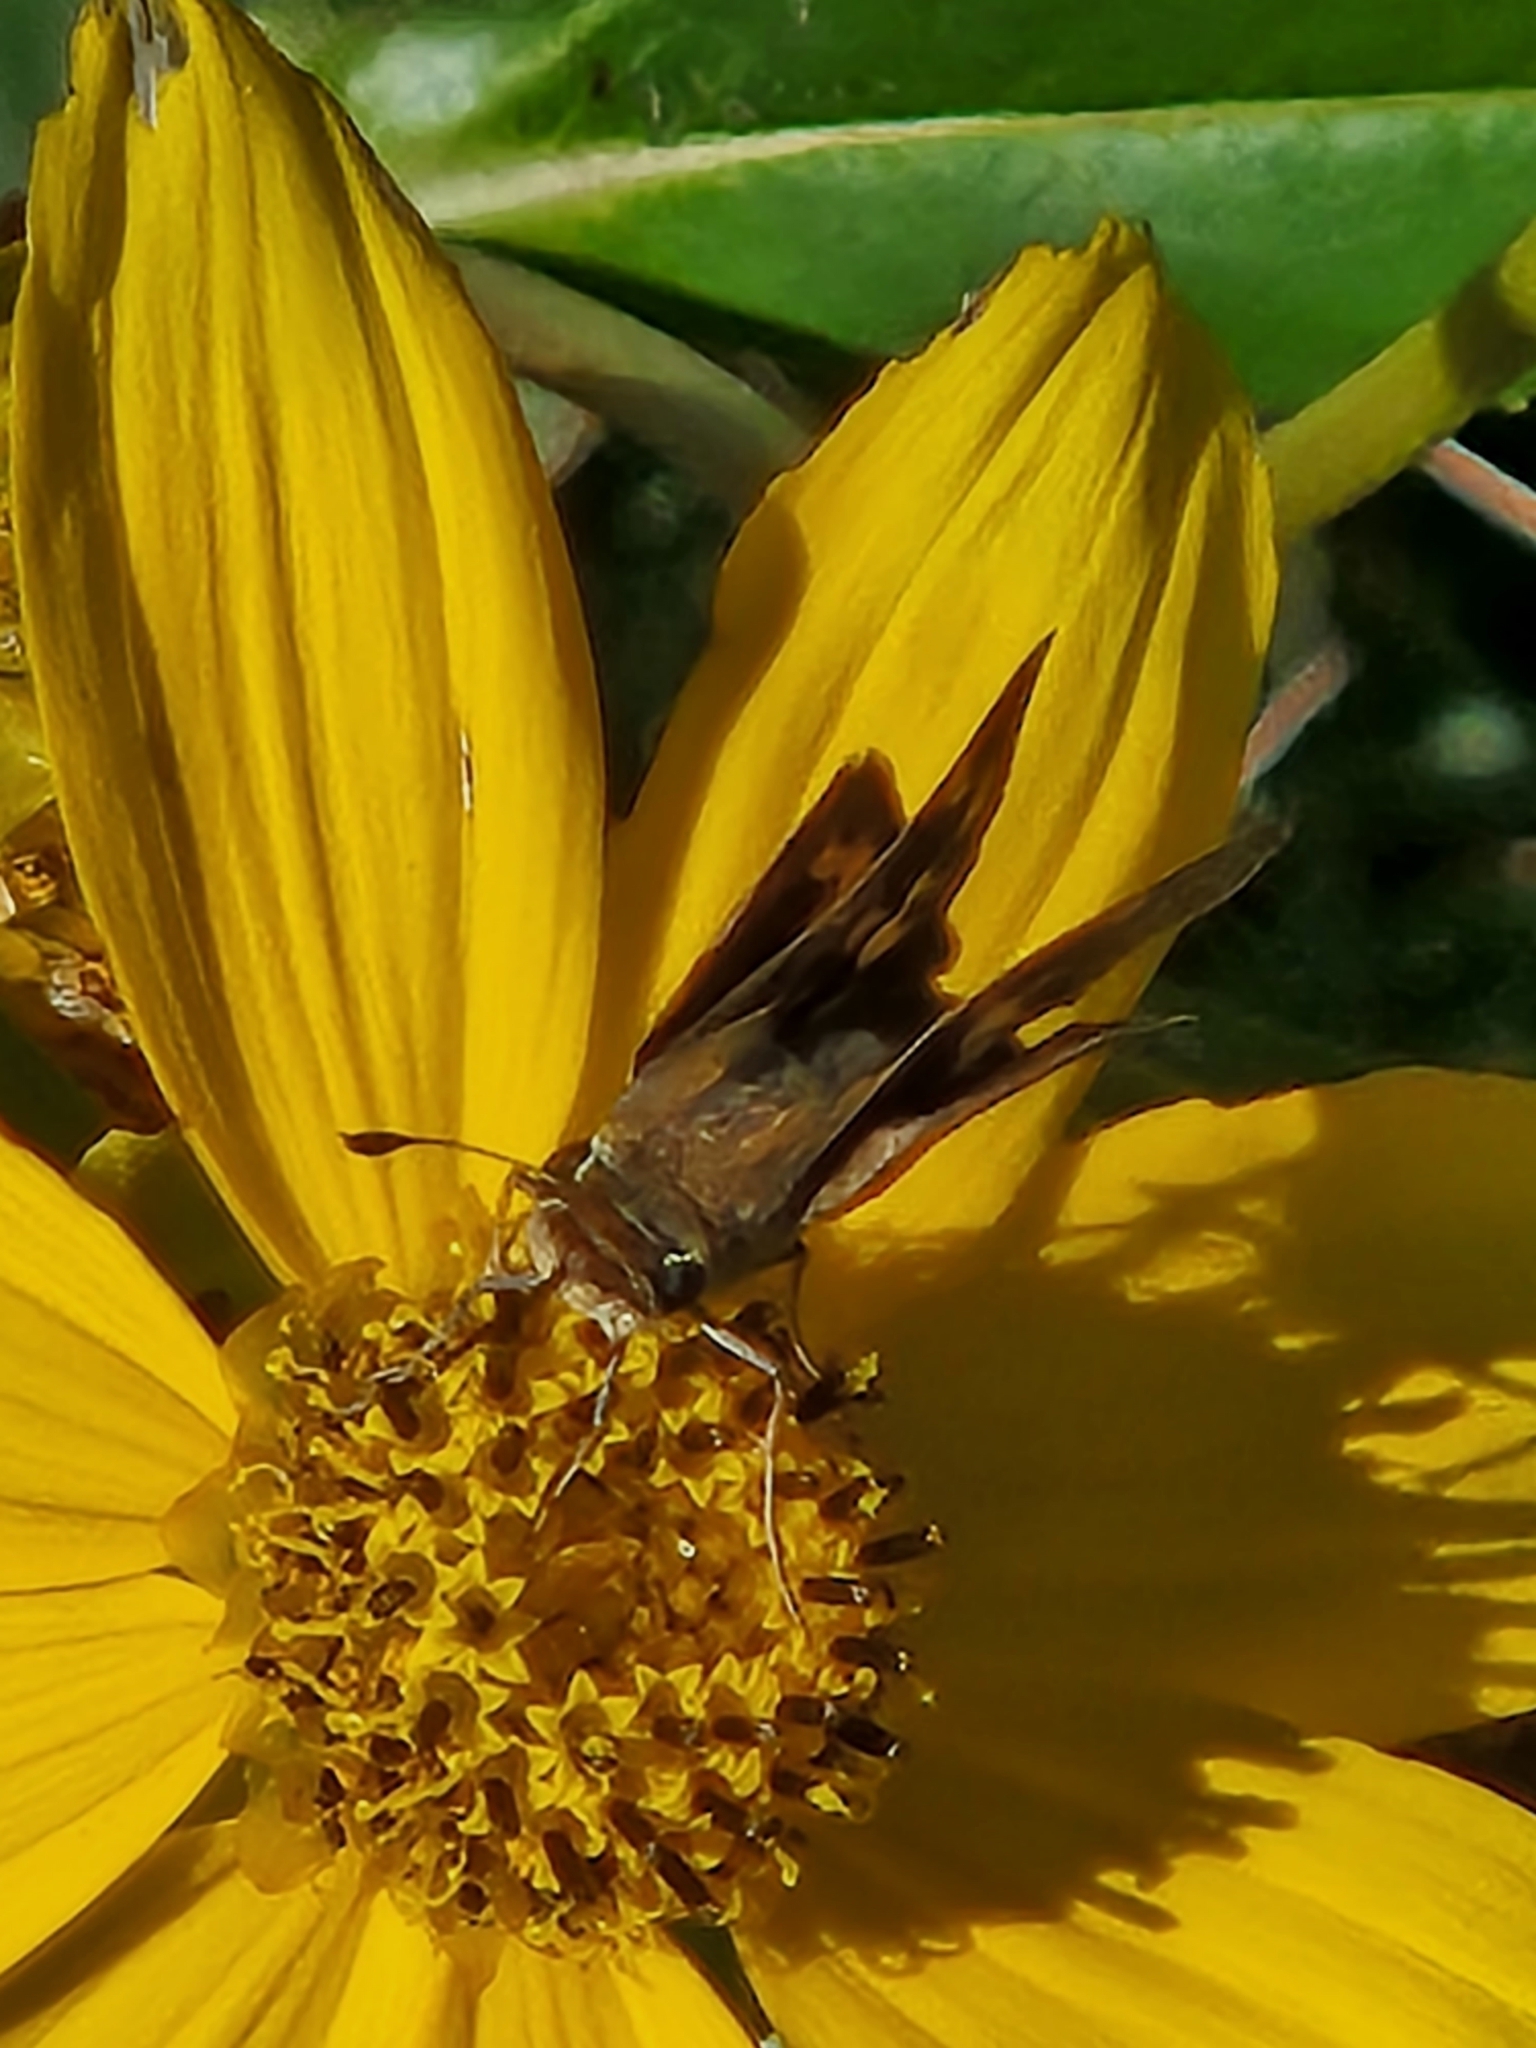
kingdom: Animalia
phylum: Arthropoda
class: Insecta
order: Lepidoptera
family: Hesperiidae
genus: Hylephila
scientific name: Hylephila phyleus
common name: Fiery skipper
